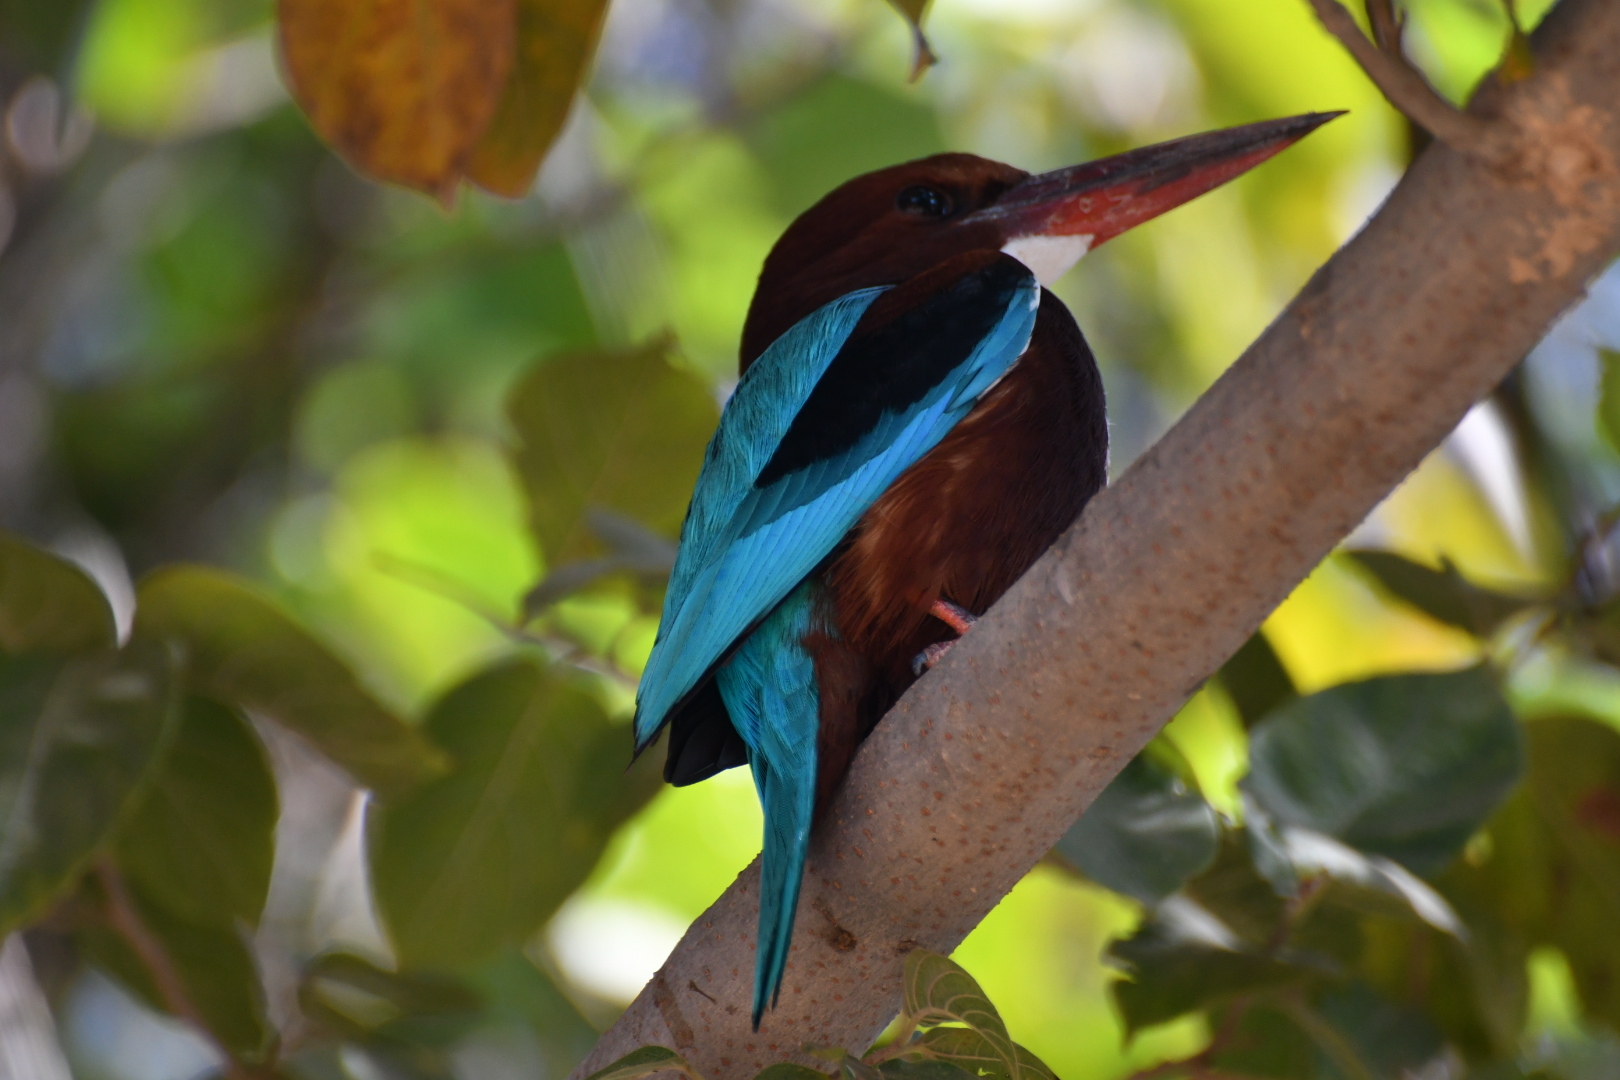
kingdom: Animalia
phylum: Chordata
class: Aves
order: Coraciiformes
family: Alcedinidae
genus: Halcyon
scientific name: Halcyon smyrnensis
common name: White-throated kingfisher
